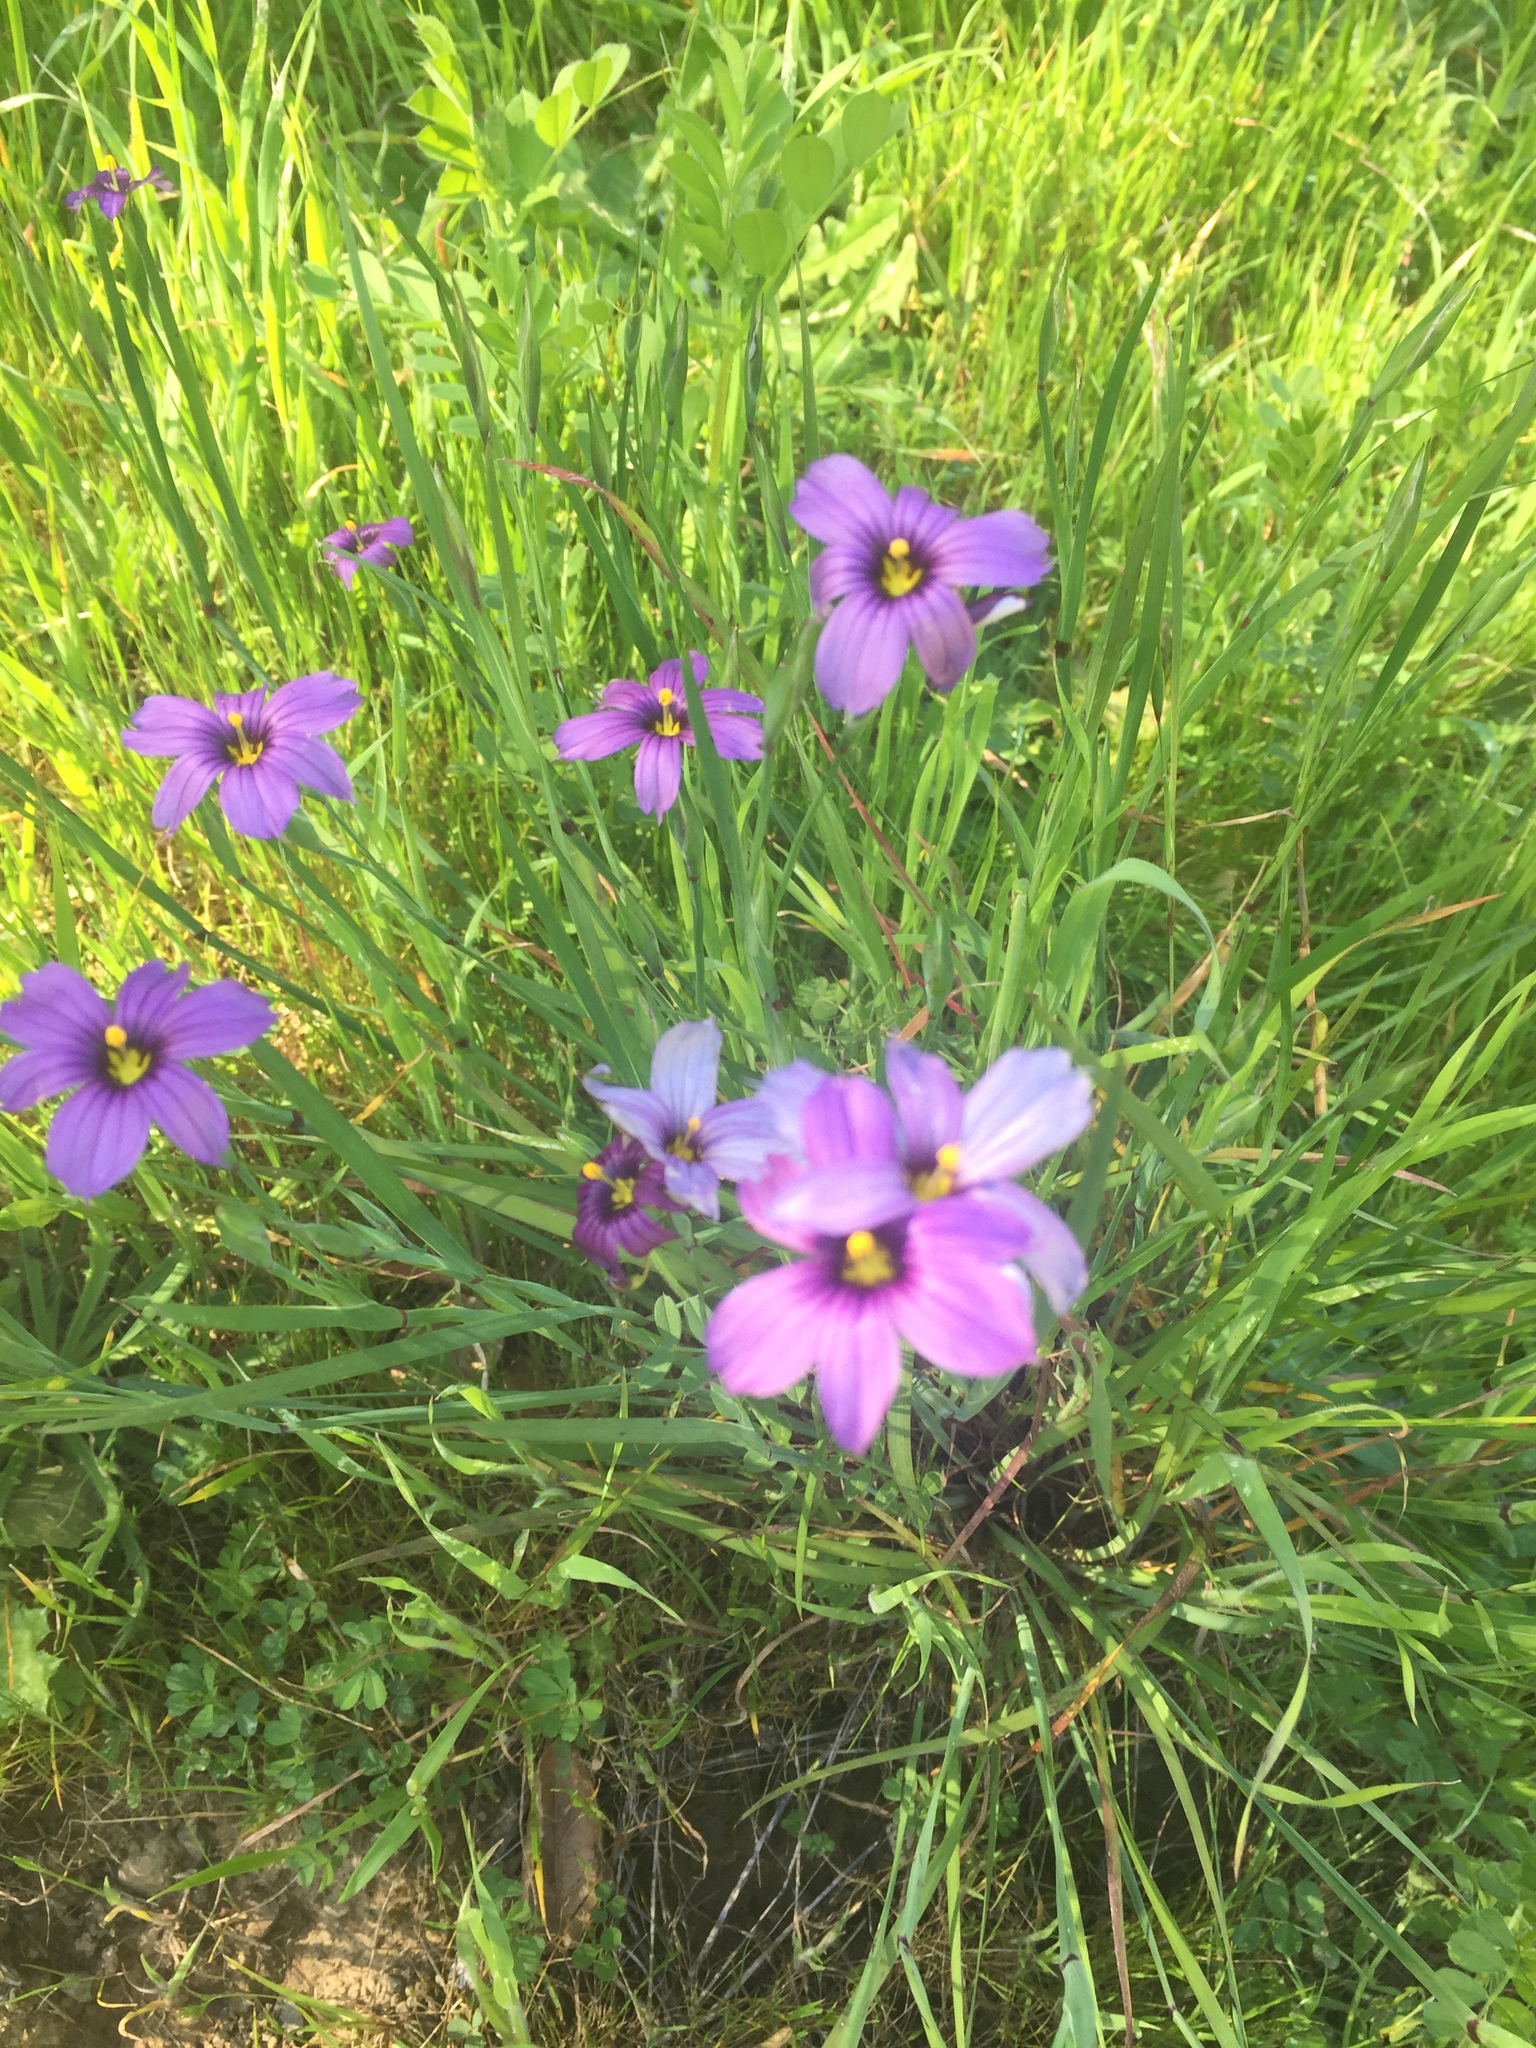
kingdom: Plantae
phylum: Tracheophyta
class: Liliopsida
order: Asparagales
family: Iridaceae
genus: Sisyrinchium
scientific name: Sisyrinchium bellum
